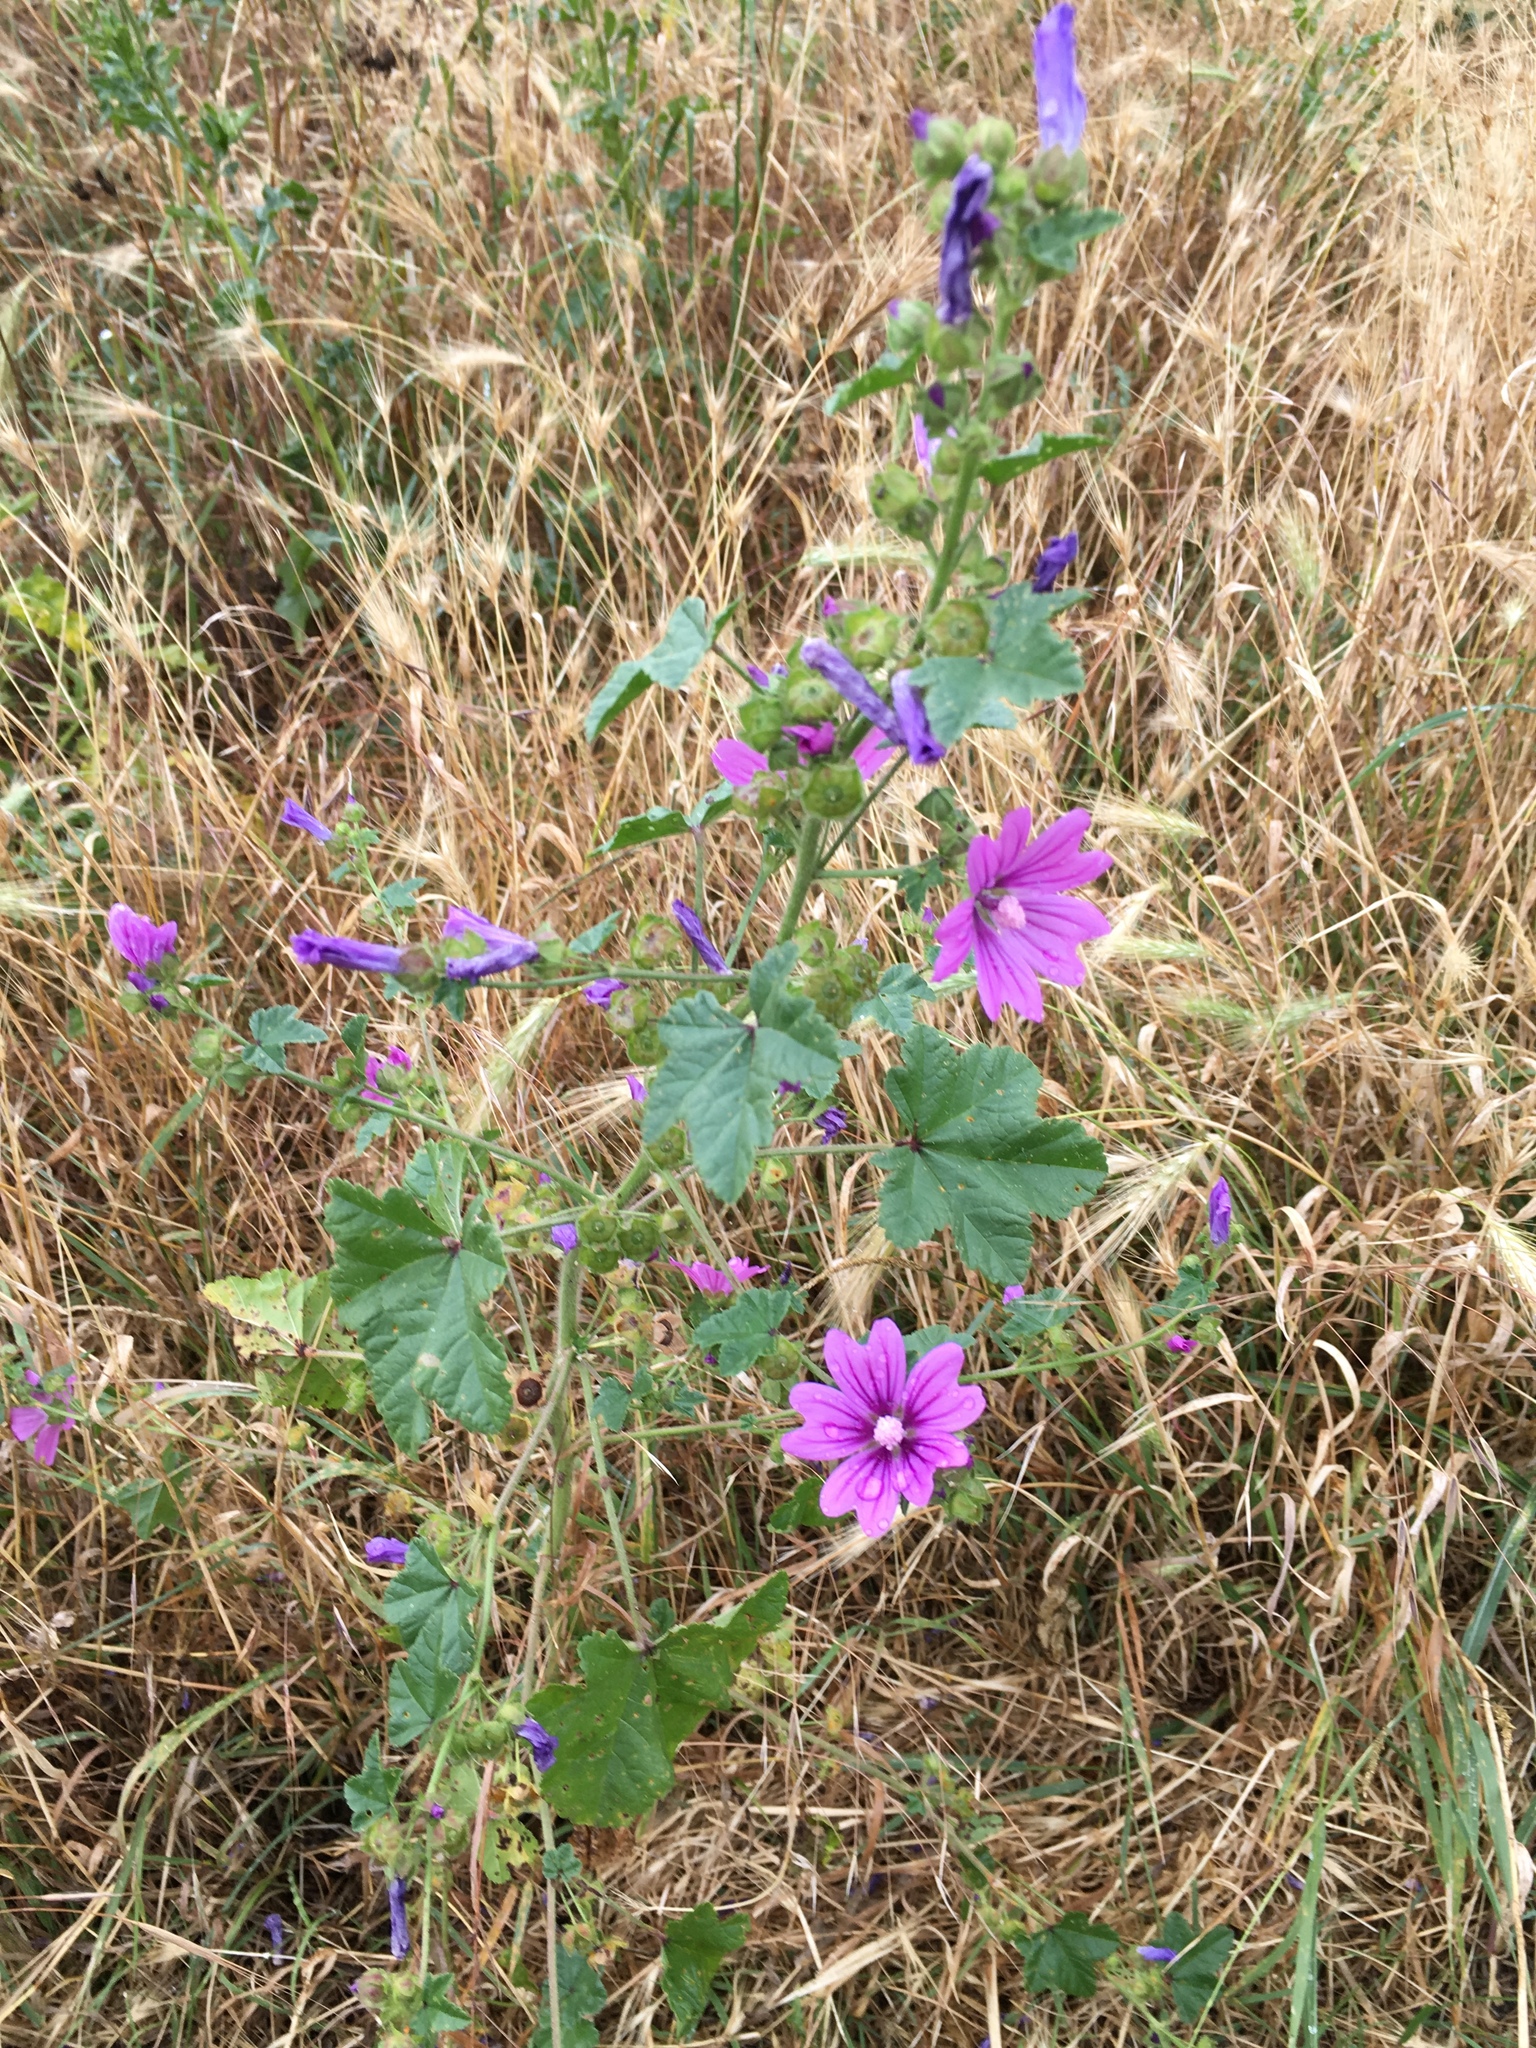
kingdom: Plantae
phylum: Tracheophyta
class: Magnoliopsida
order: Malvales
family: Malvaceae
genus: Malva
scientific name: Malva sylvestris
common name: Common mallow
